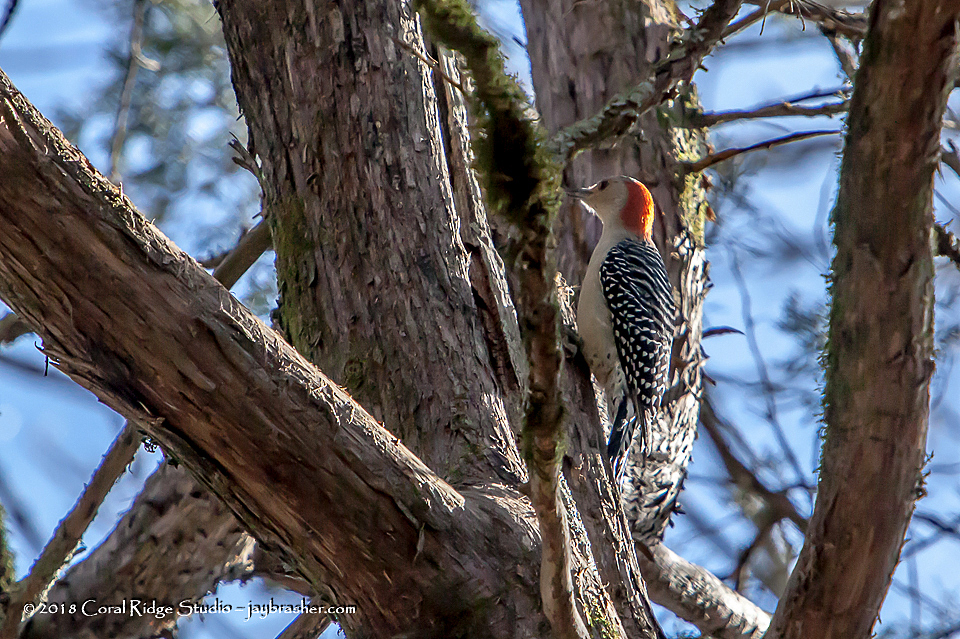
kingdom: Animalia
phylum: Chordata
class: Aves
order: Piciformes
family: Picidae
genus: Melanerpes
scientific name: Melanerpes carolinus
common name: Red-bellied woodpecker
